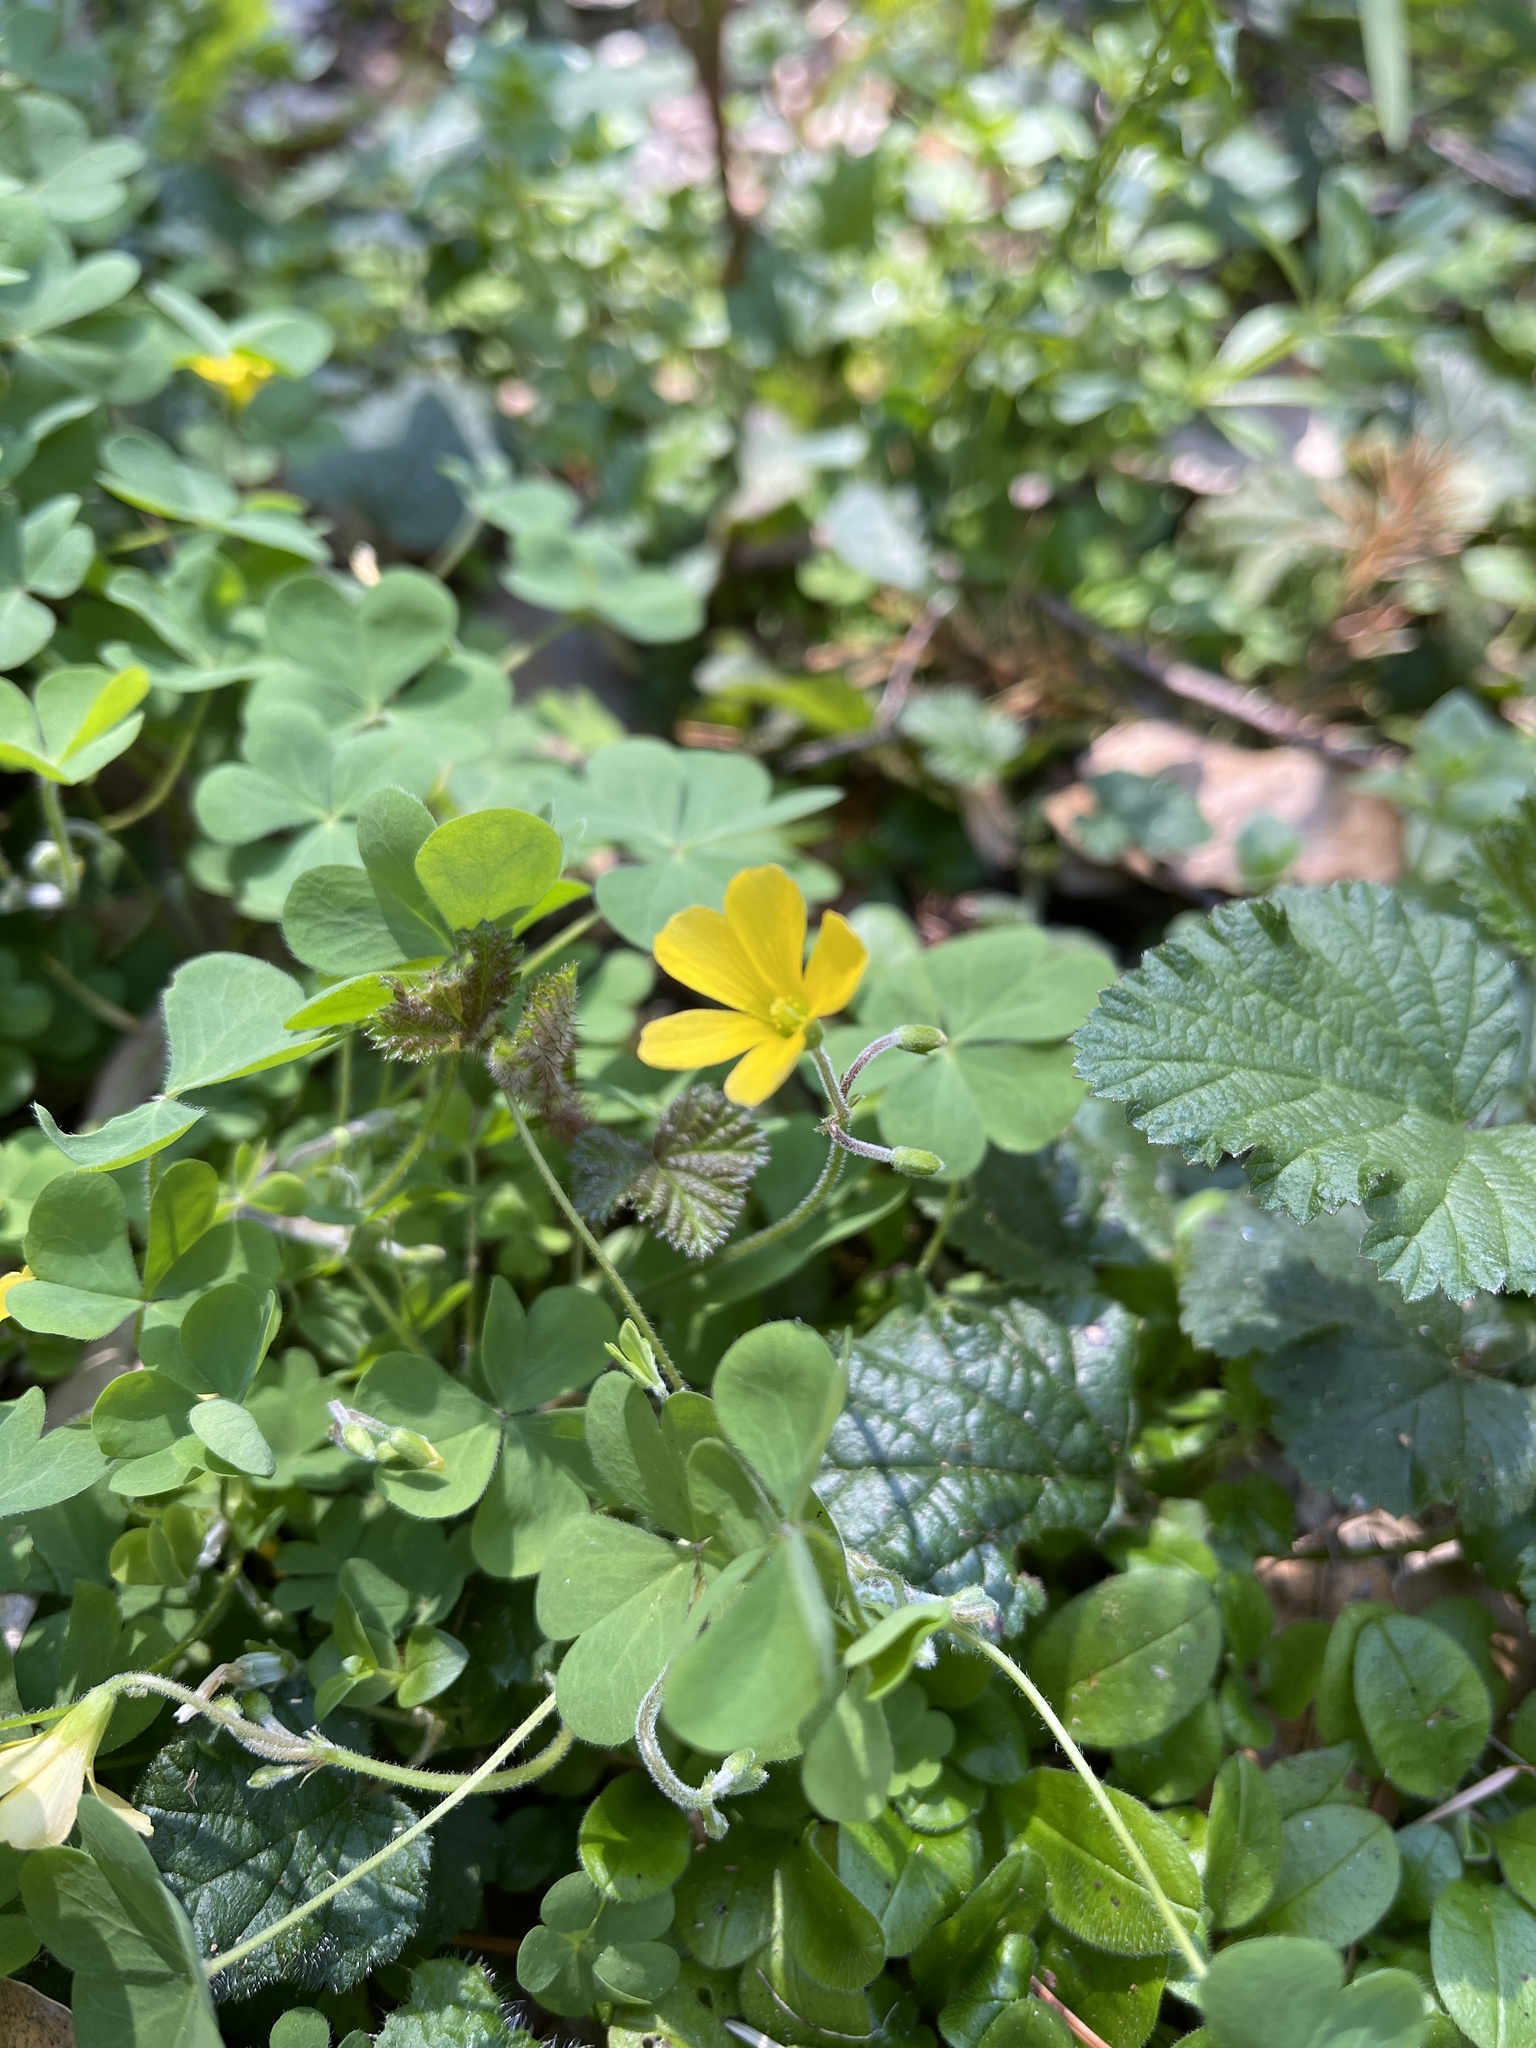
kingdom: Plantae
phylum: Tracheophyta
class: Magnoliopsida
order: Oxalidales
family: Oxalidaceae
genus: Oxalis
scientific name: Oxalis pilosa
